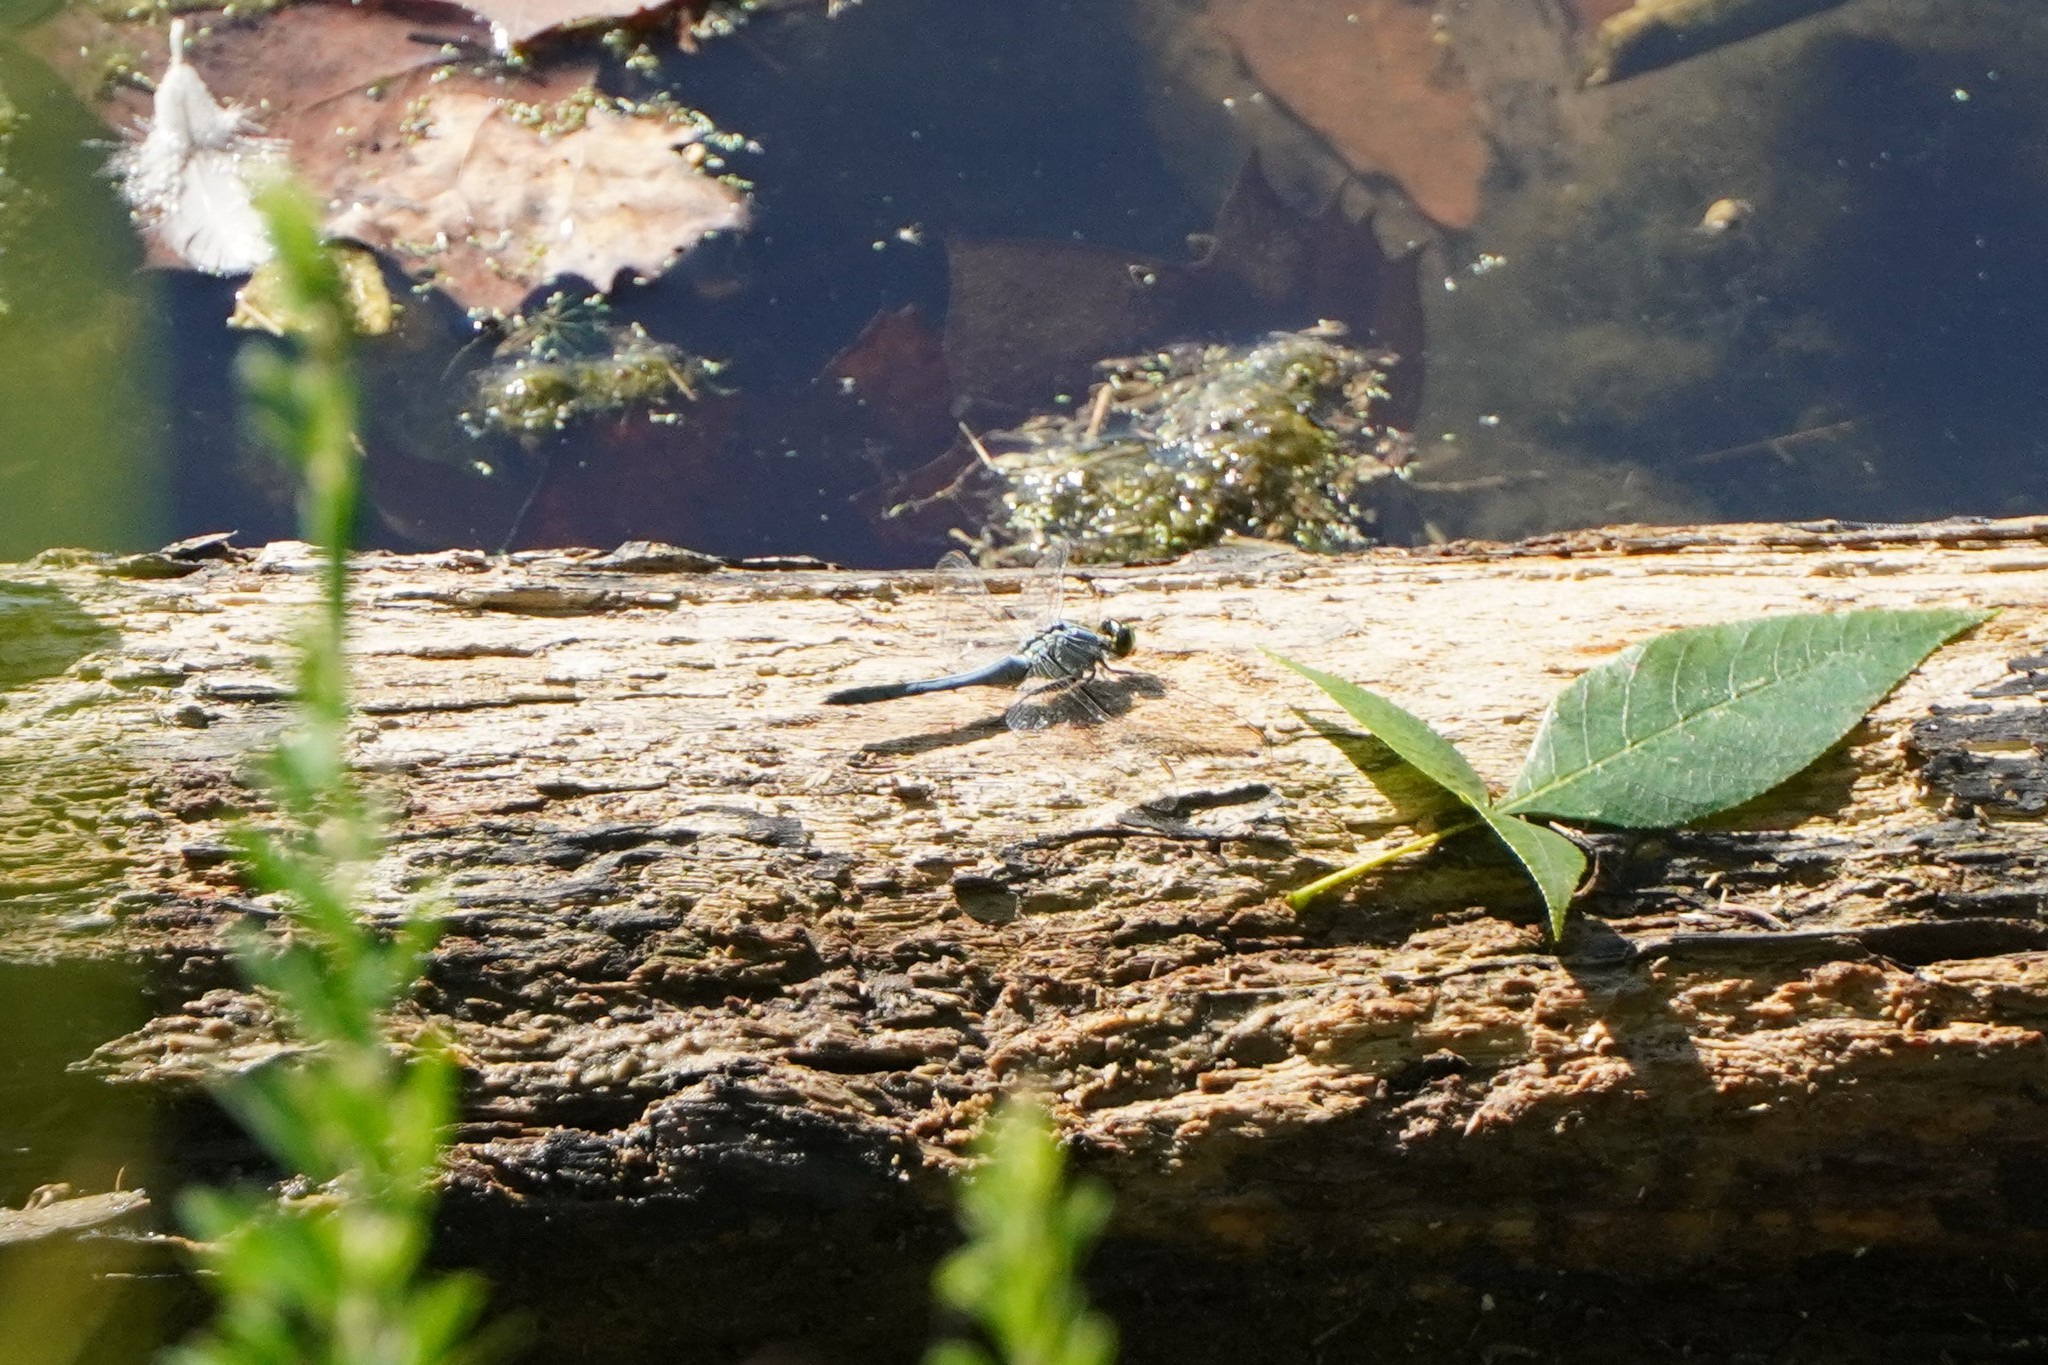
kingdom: Animalia
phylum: Arthropoda
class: Insecta
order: Odonata
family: Libellulidae
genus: Erythemis
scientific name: Erythemis simplicicollis
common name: Eastern pondhawk
